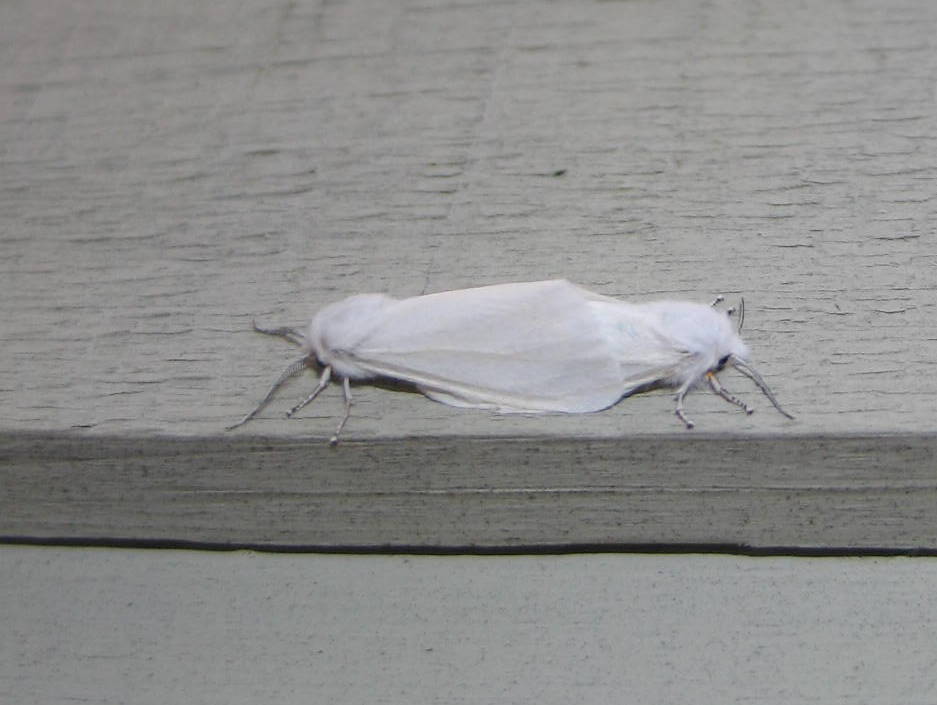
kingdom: Animalia
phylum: Arthropoda
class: Insecta
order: Lepidoptera
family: Erebidae
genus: Hyphantria
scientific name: Hyphantria cunea
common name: American white moth
